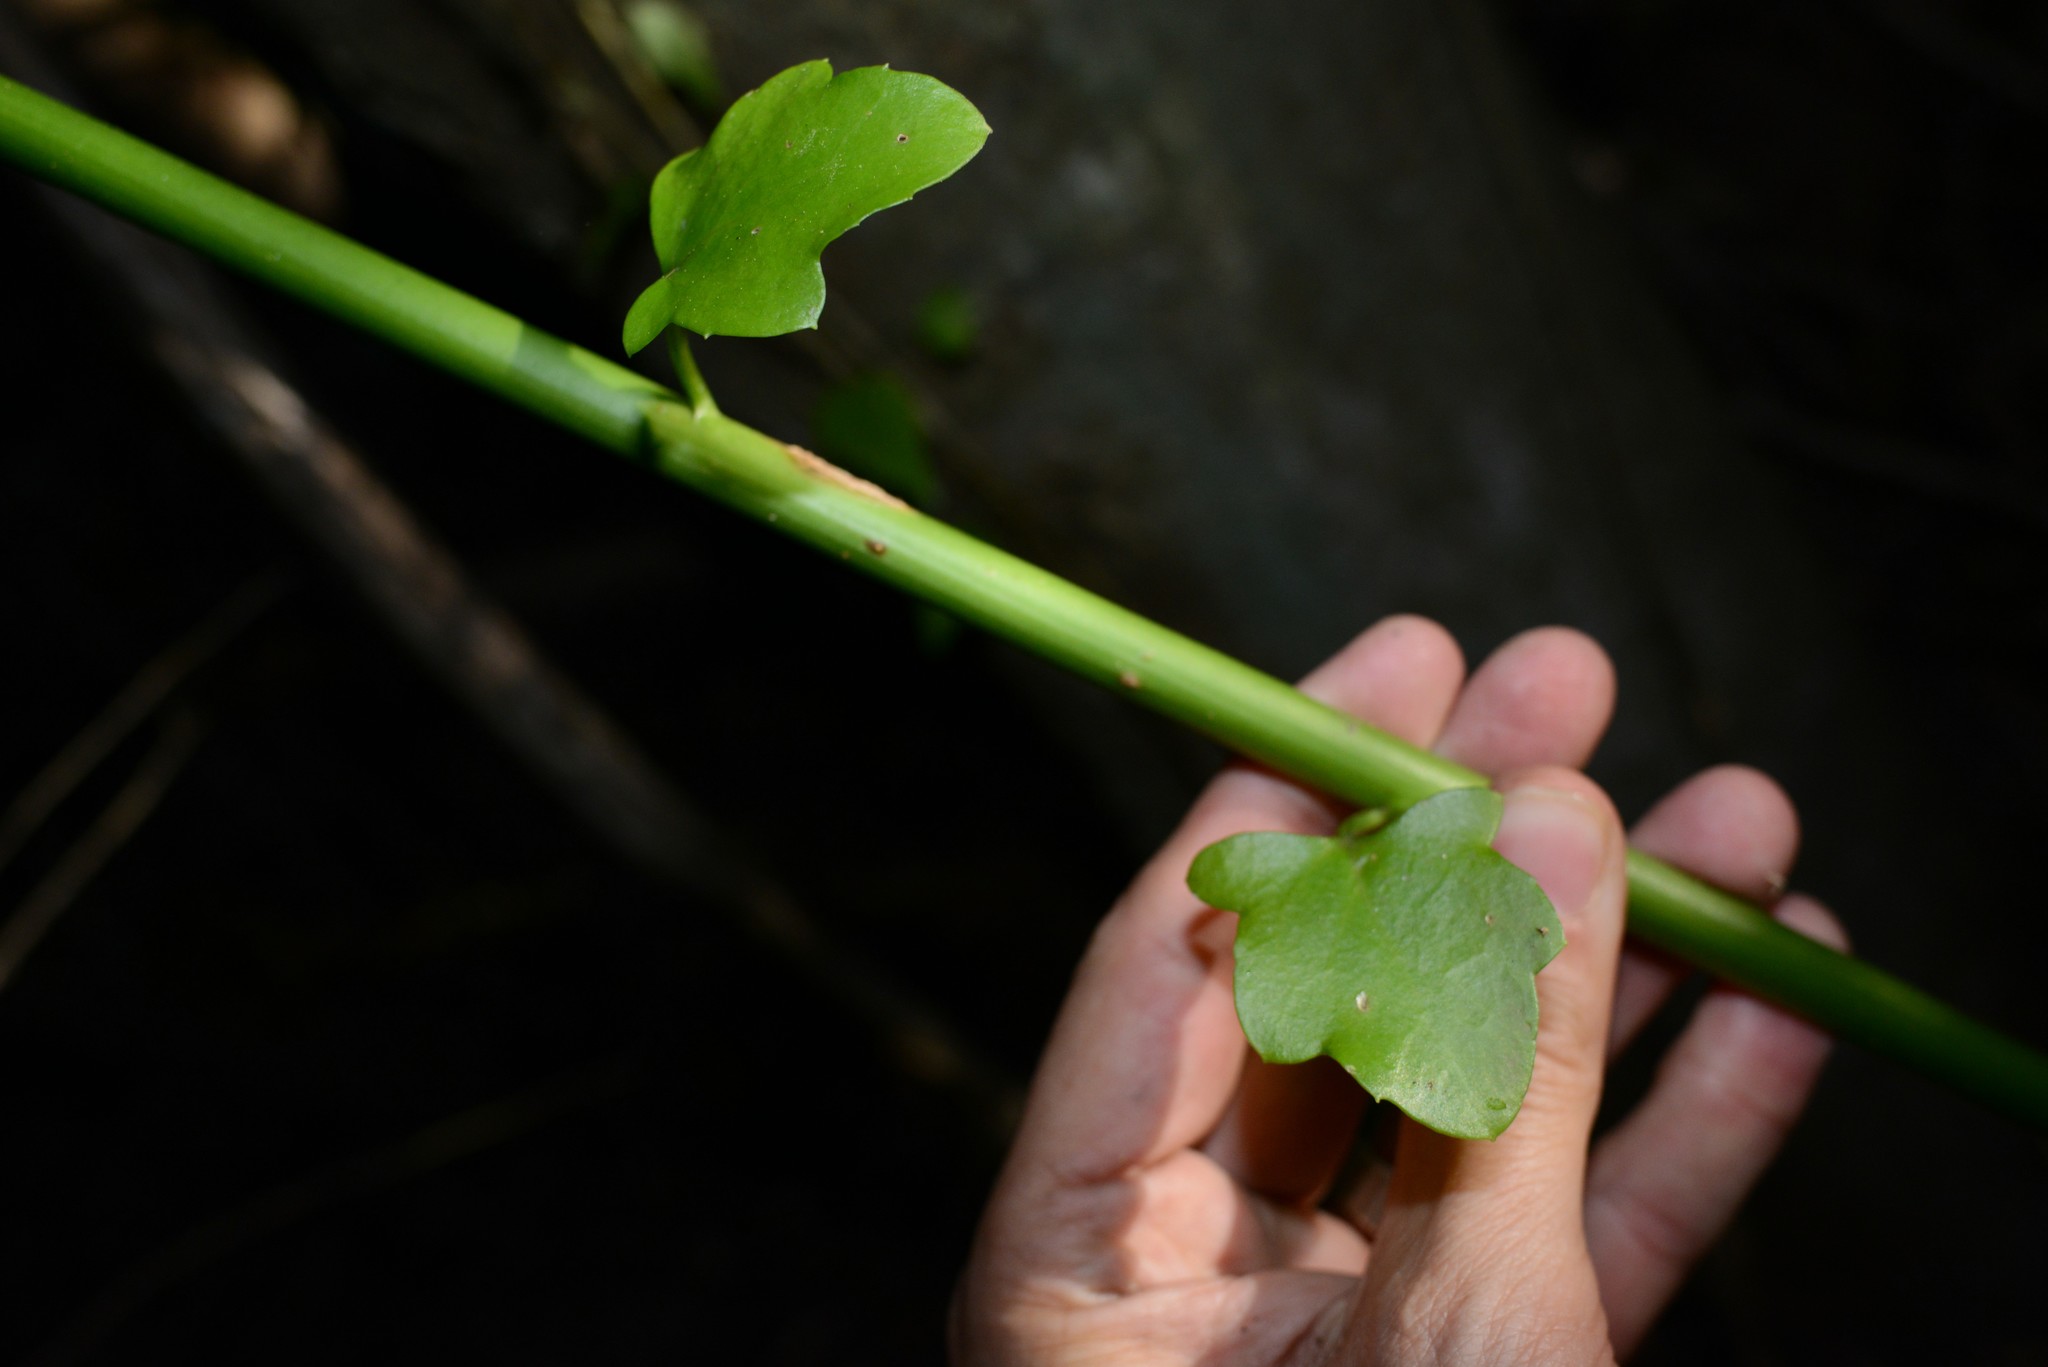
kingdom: Plantae
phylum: Tracheophyta
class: Magnoliopsida
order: Asterales
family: Asteraceae
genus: Senecio
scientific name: Senecio angulatus
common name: Climbing groundsel
